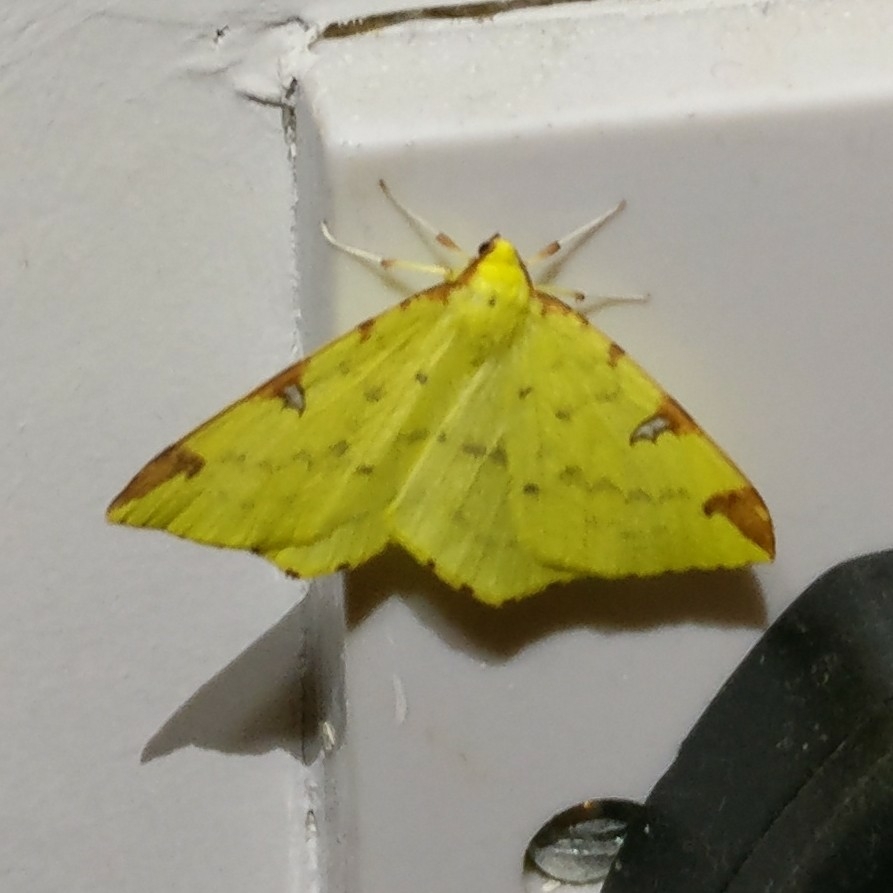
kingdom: Animalia
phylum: Arthropoda
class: Insecta
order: Lepidoptera
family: Geometridae
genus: Opisthograptis
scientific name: Opisthograptis luteolata
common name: Brimstone moth
